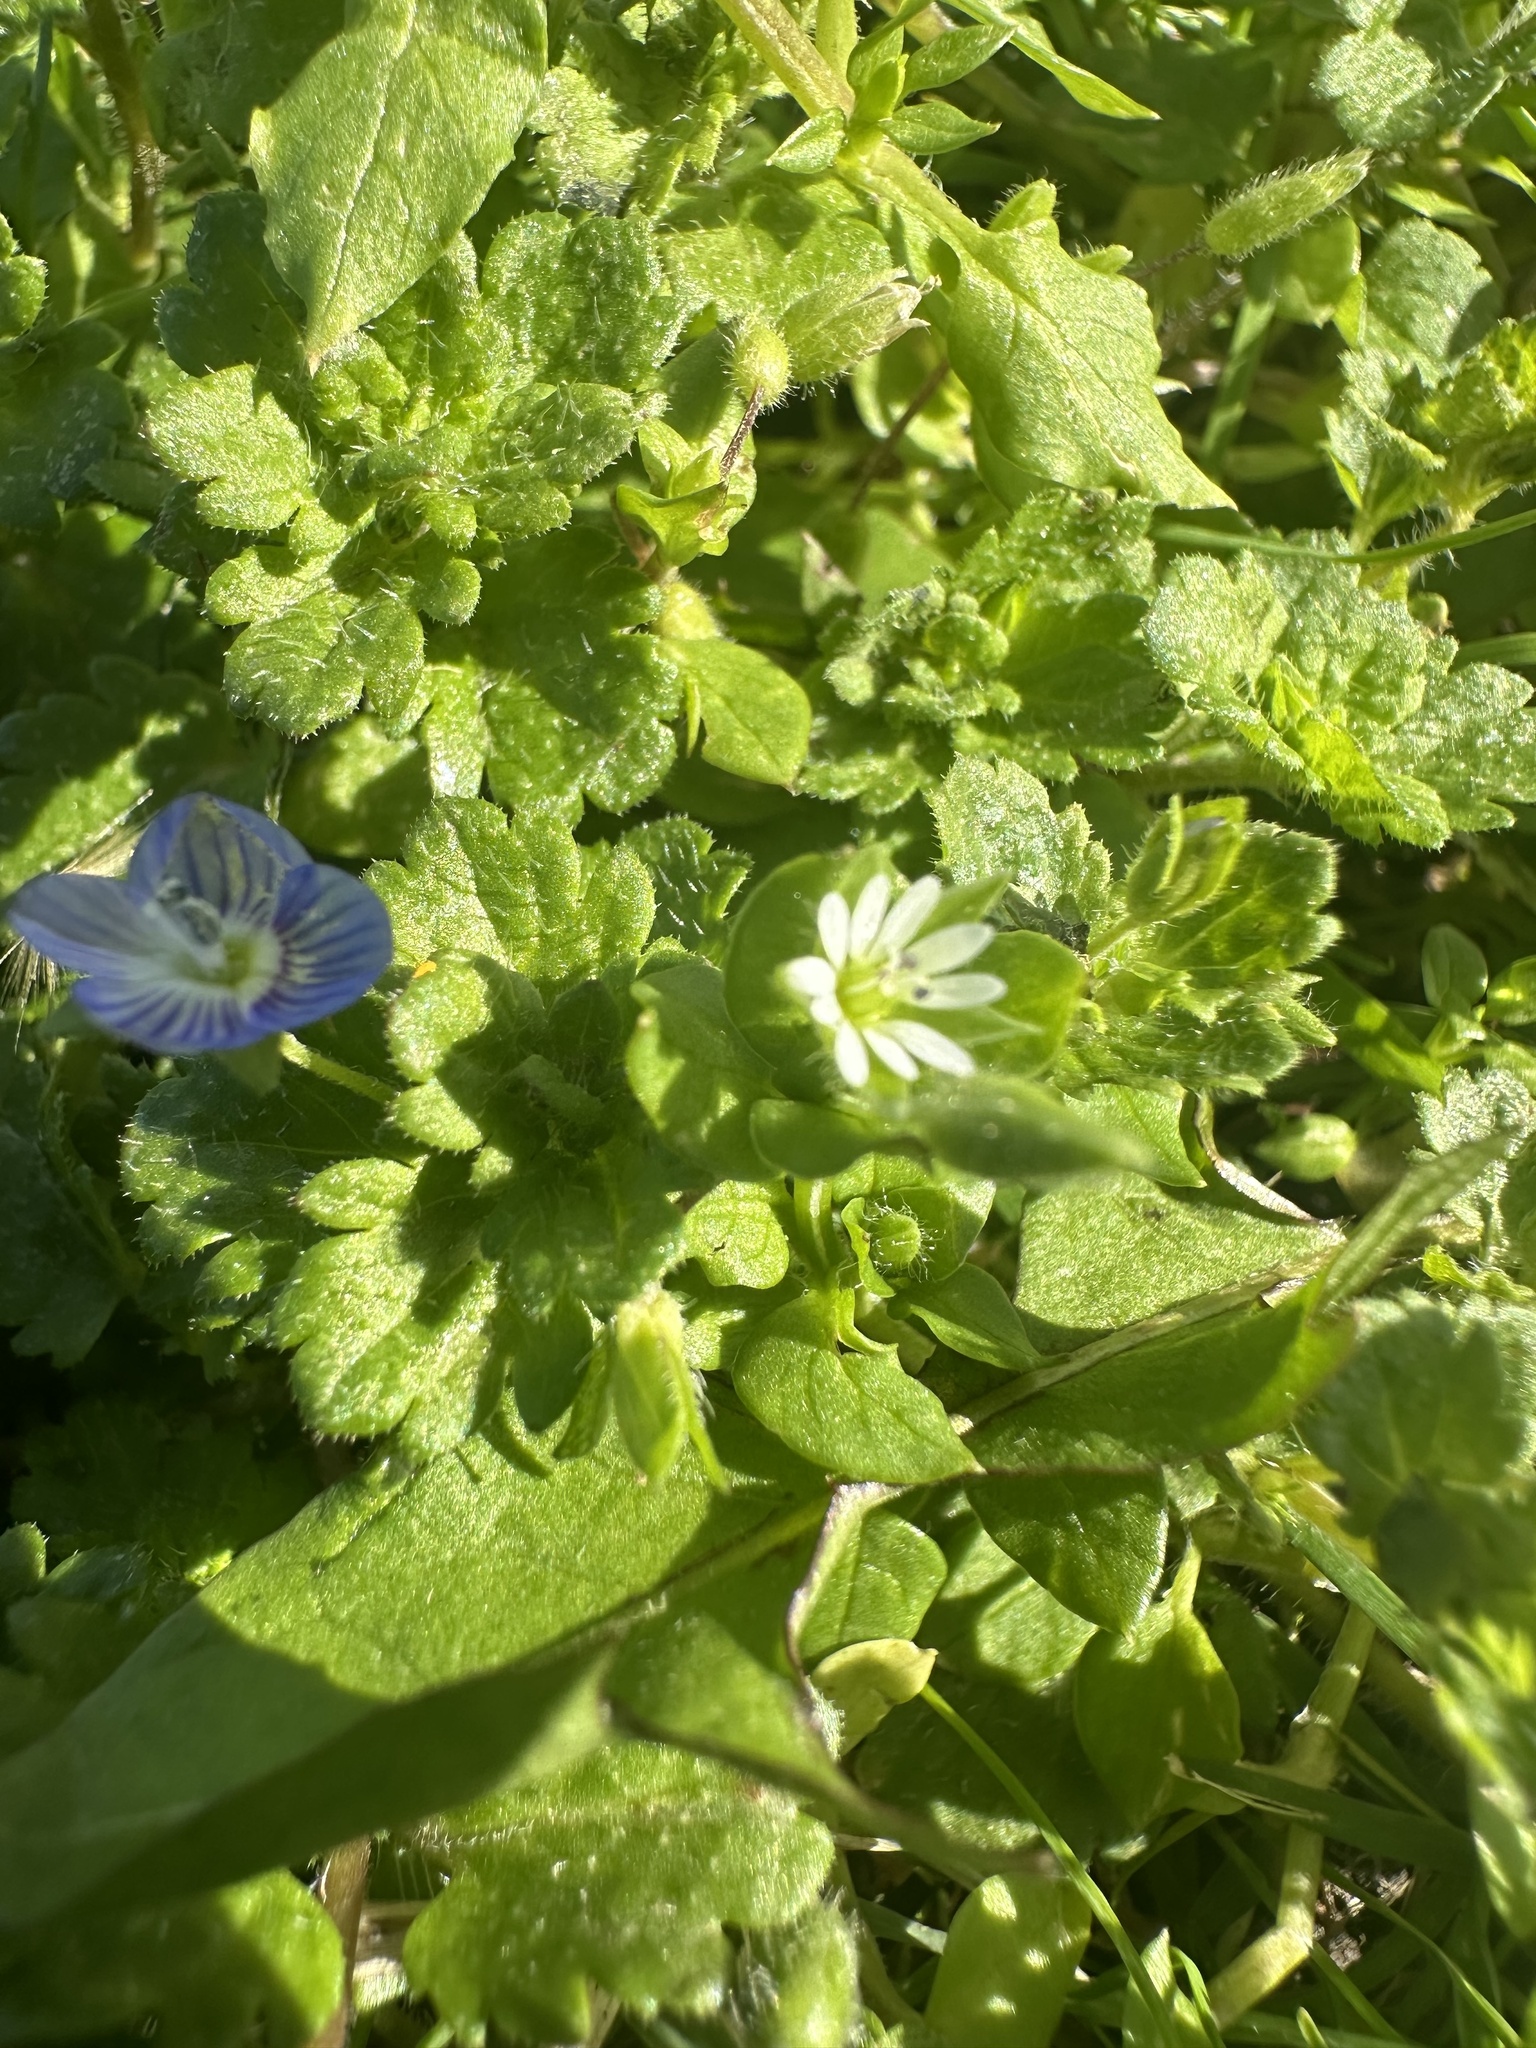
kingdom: Plantae
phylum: Tracheophyta
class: Magnoliopsida
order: Caryophyllales
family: Caryophyllaceae
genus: Stellaria
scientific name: Stellaria media
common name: Common chickweed
